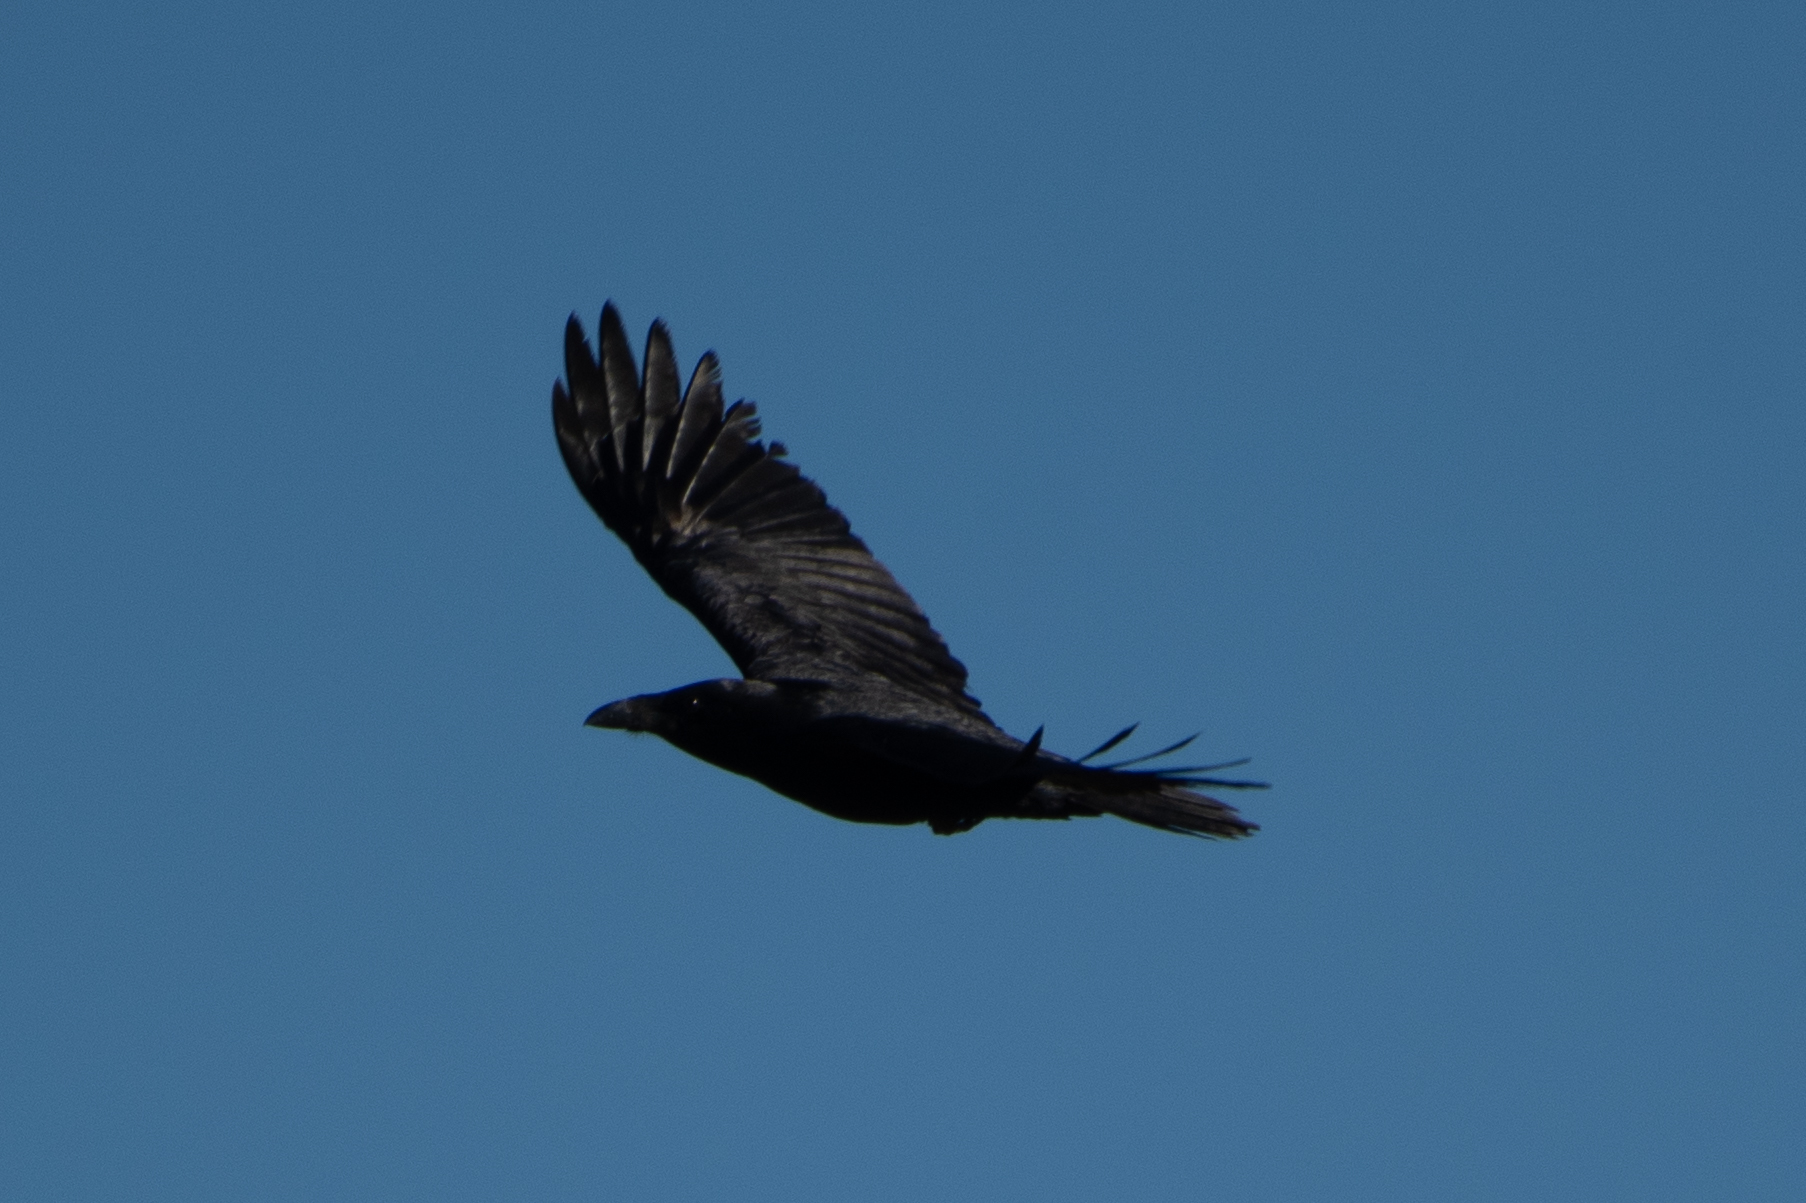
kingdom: Animalia
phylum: Chordata
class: Aves
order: Passeriformes
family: Corvidae
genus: Corvus
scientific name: Corvus corax
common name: Common raven
